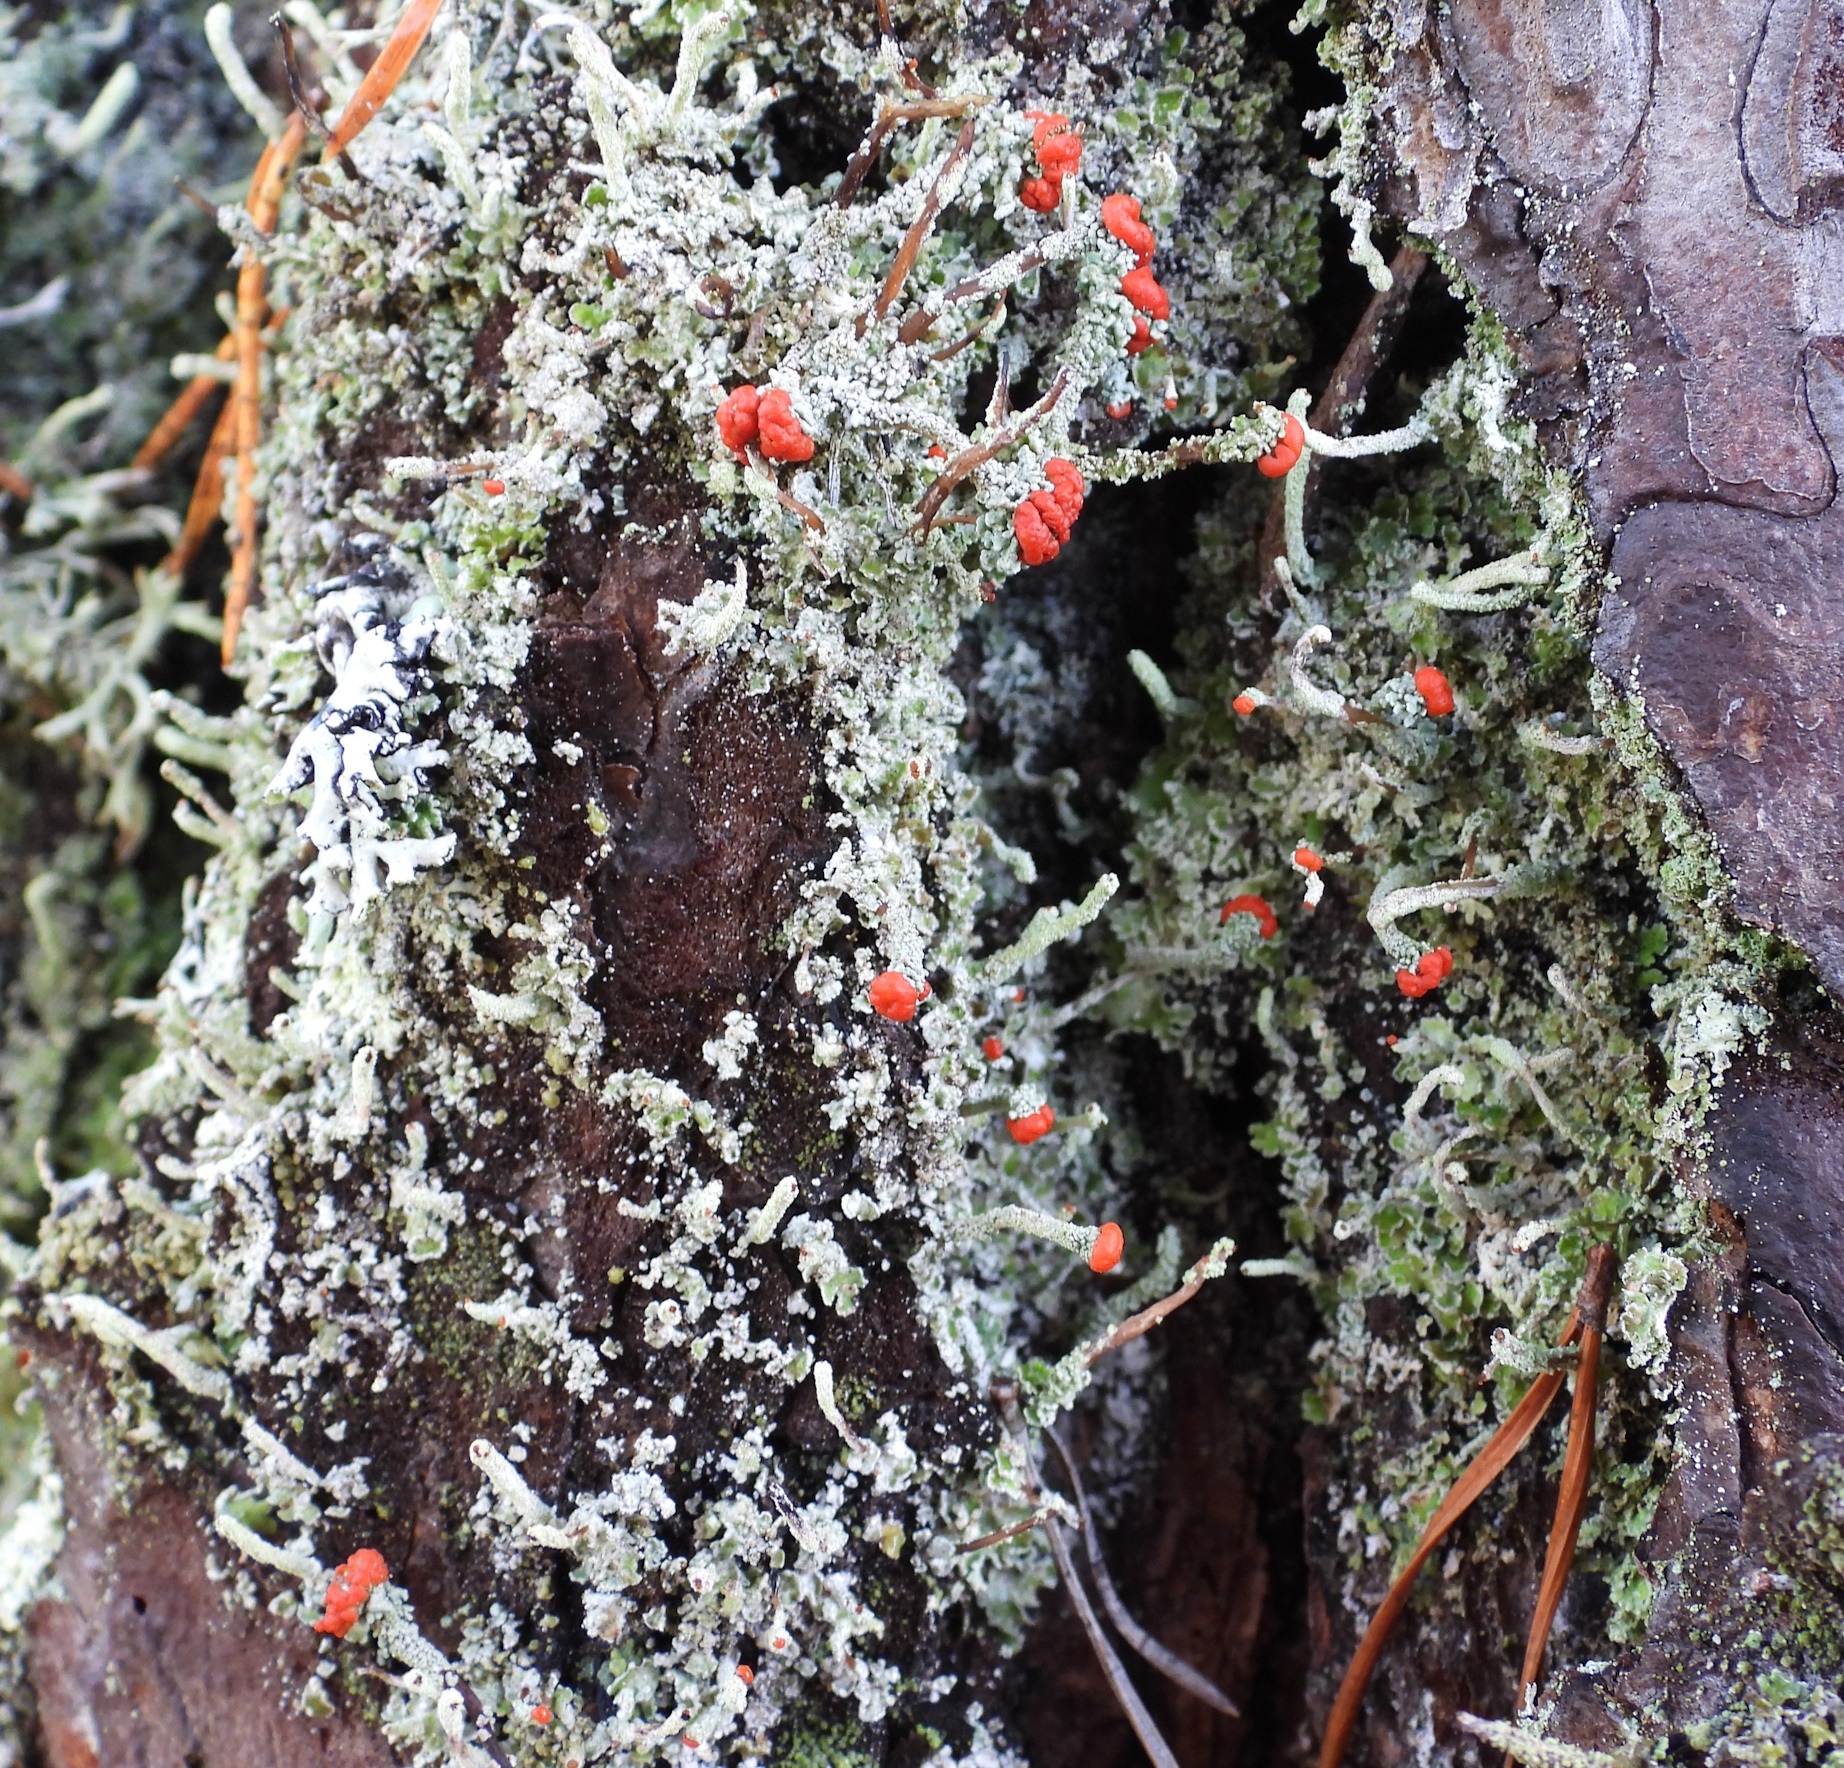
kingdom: Fungi
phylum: Ascomycota
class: Lecanoromycetes
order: Lecanorales
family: Cladoniaceae
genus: Cladonia
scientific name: Cladonia floerkeana
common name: Gritty british soldiers lichen
